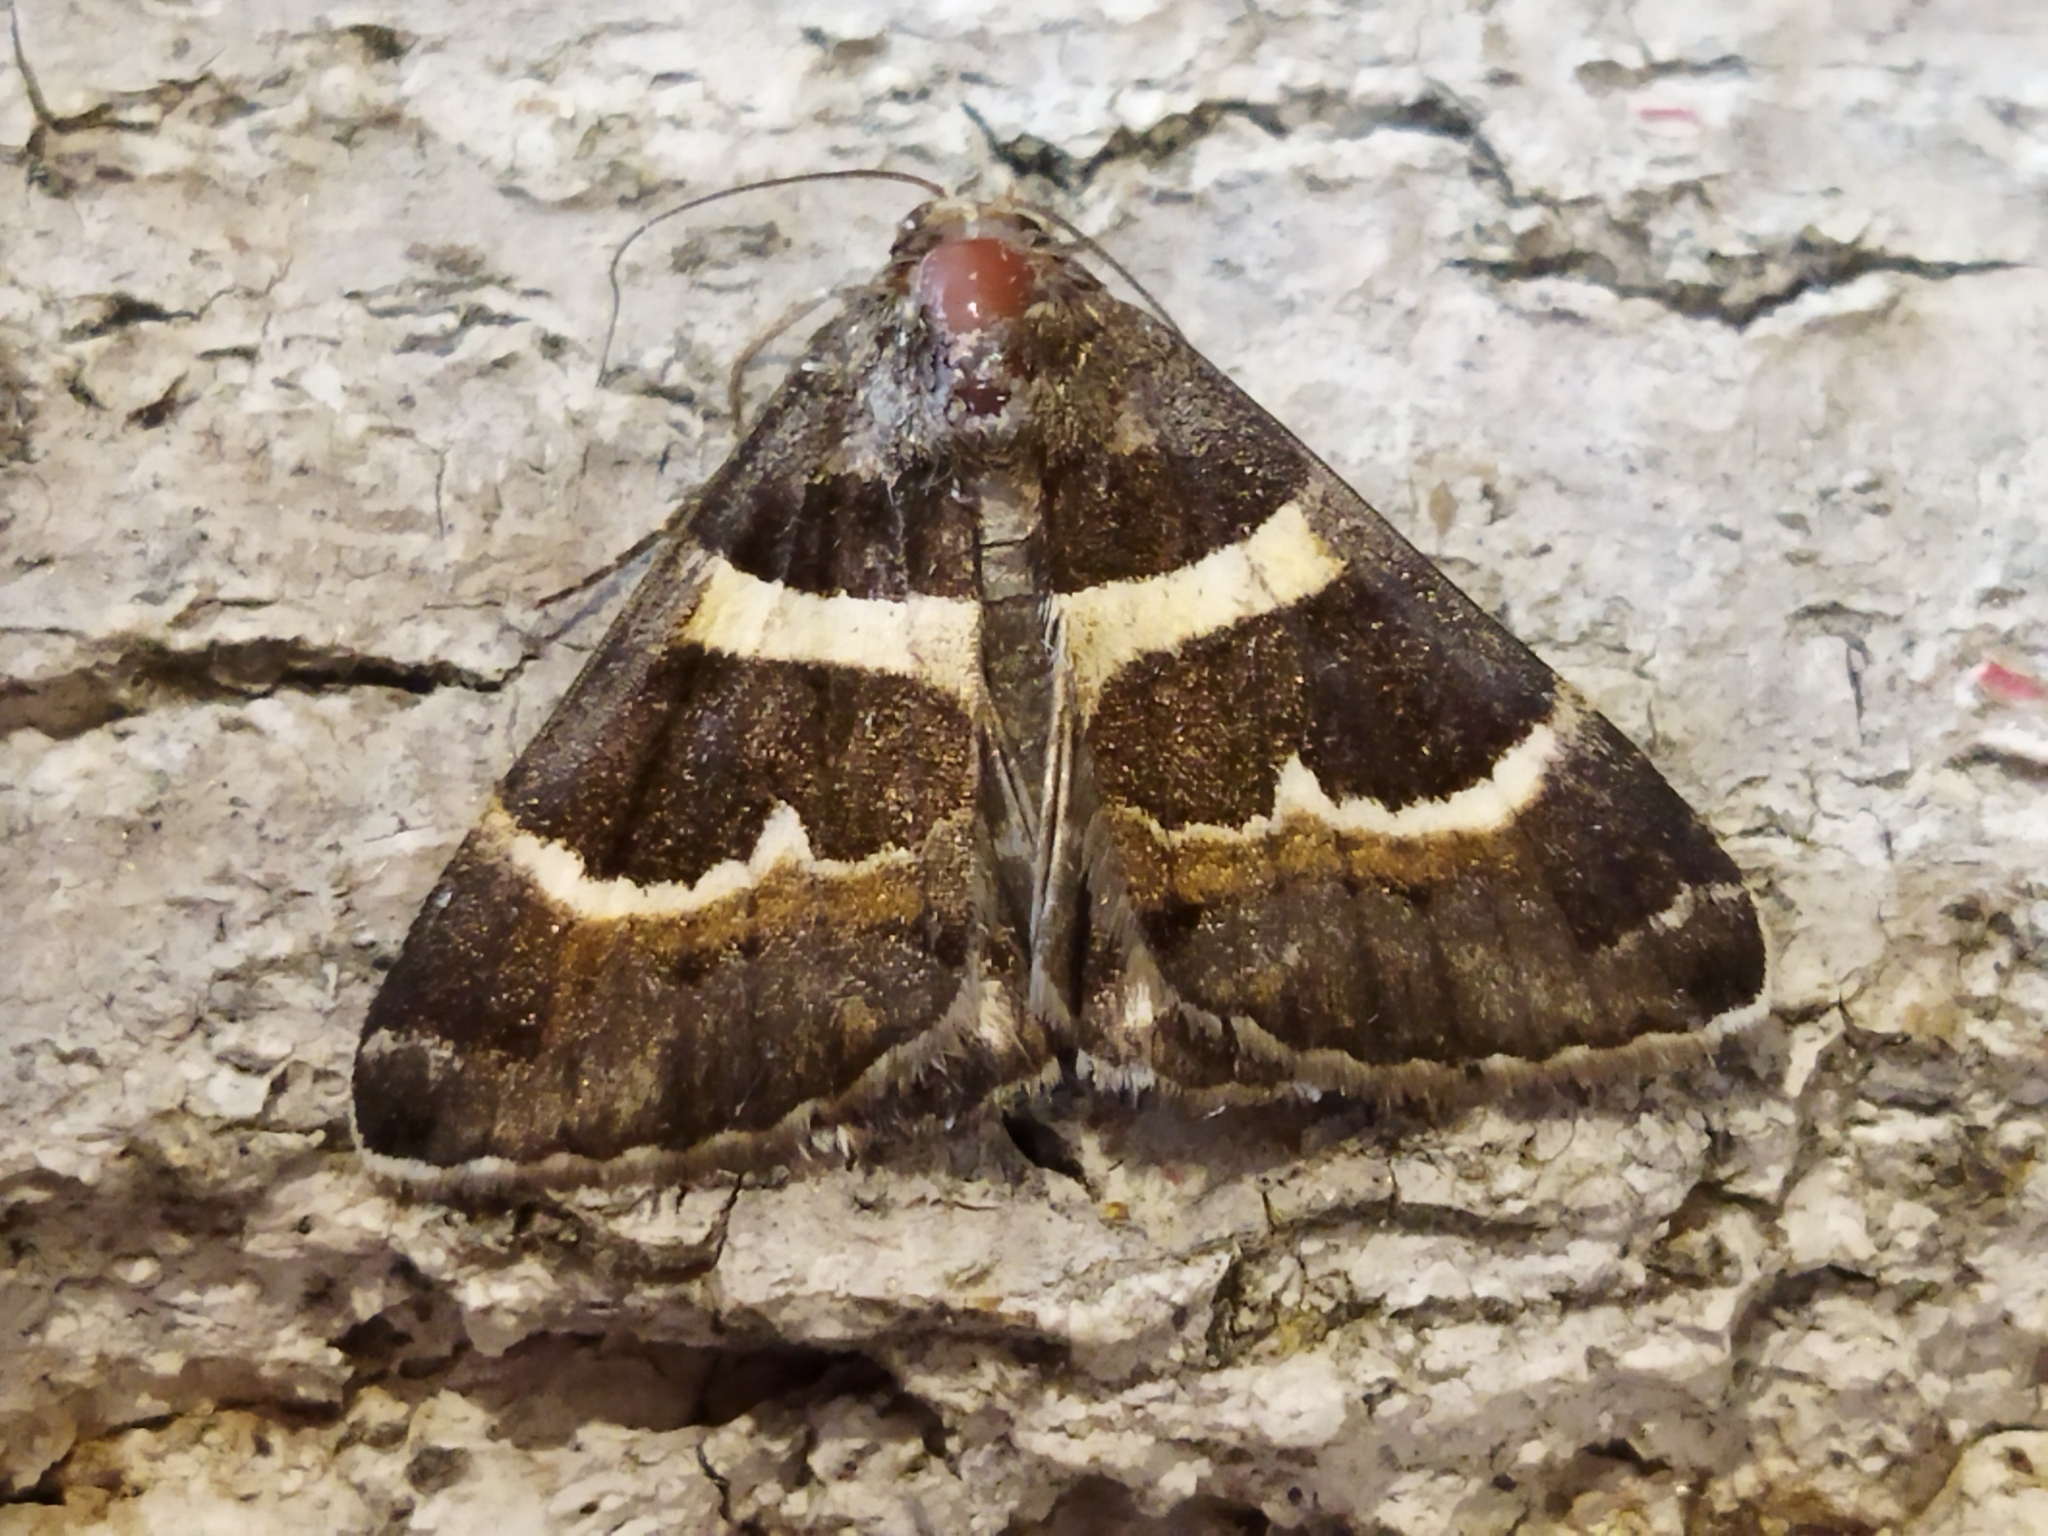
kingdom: Animalia
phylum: Arthropoda
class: Insecta
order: Lepidoptera
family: Erebidae
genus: Grammodes
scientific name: Grammodes stolida
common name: Geometrician
